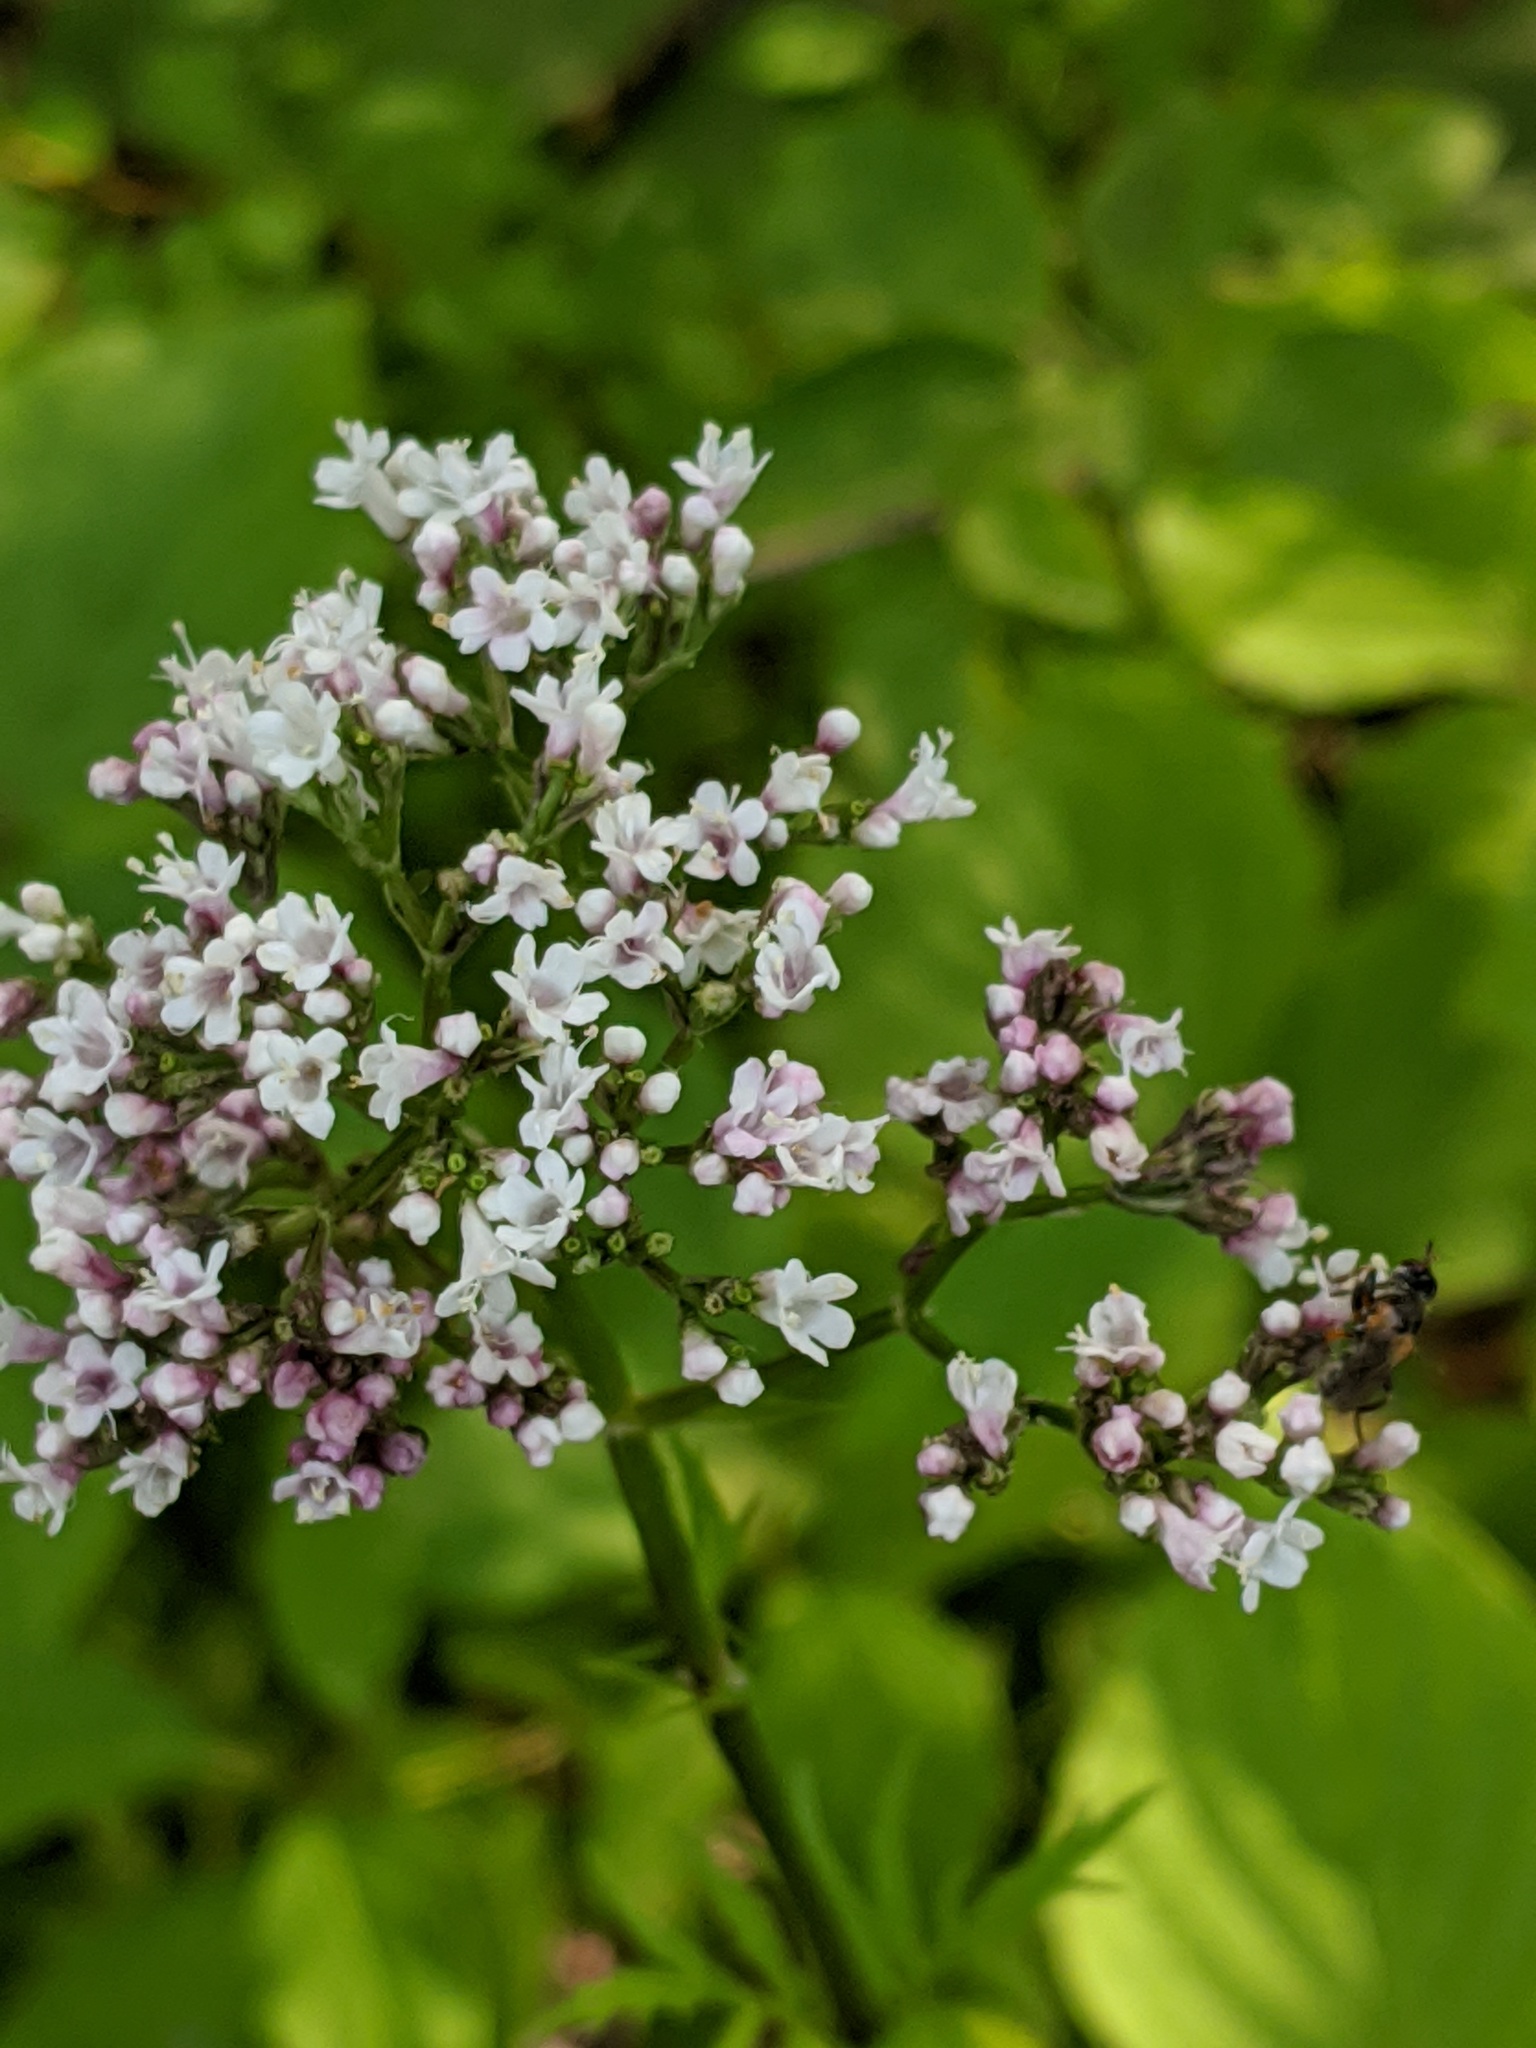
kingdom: Plantae
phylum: Tracheophyta
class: Magnoliopsida
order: Dipsacales
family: Caprifoliaceae
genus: Valeriana
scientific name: Valeriana officinalis
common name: Common valerian
